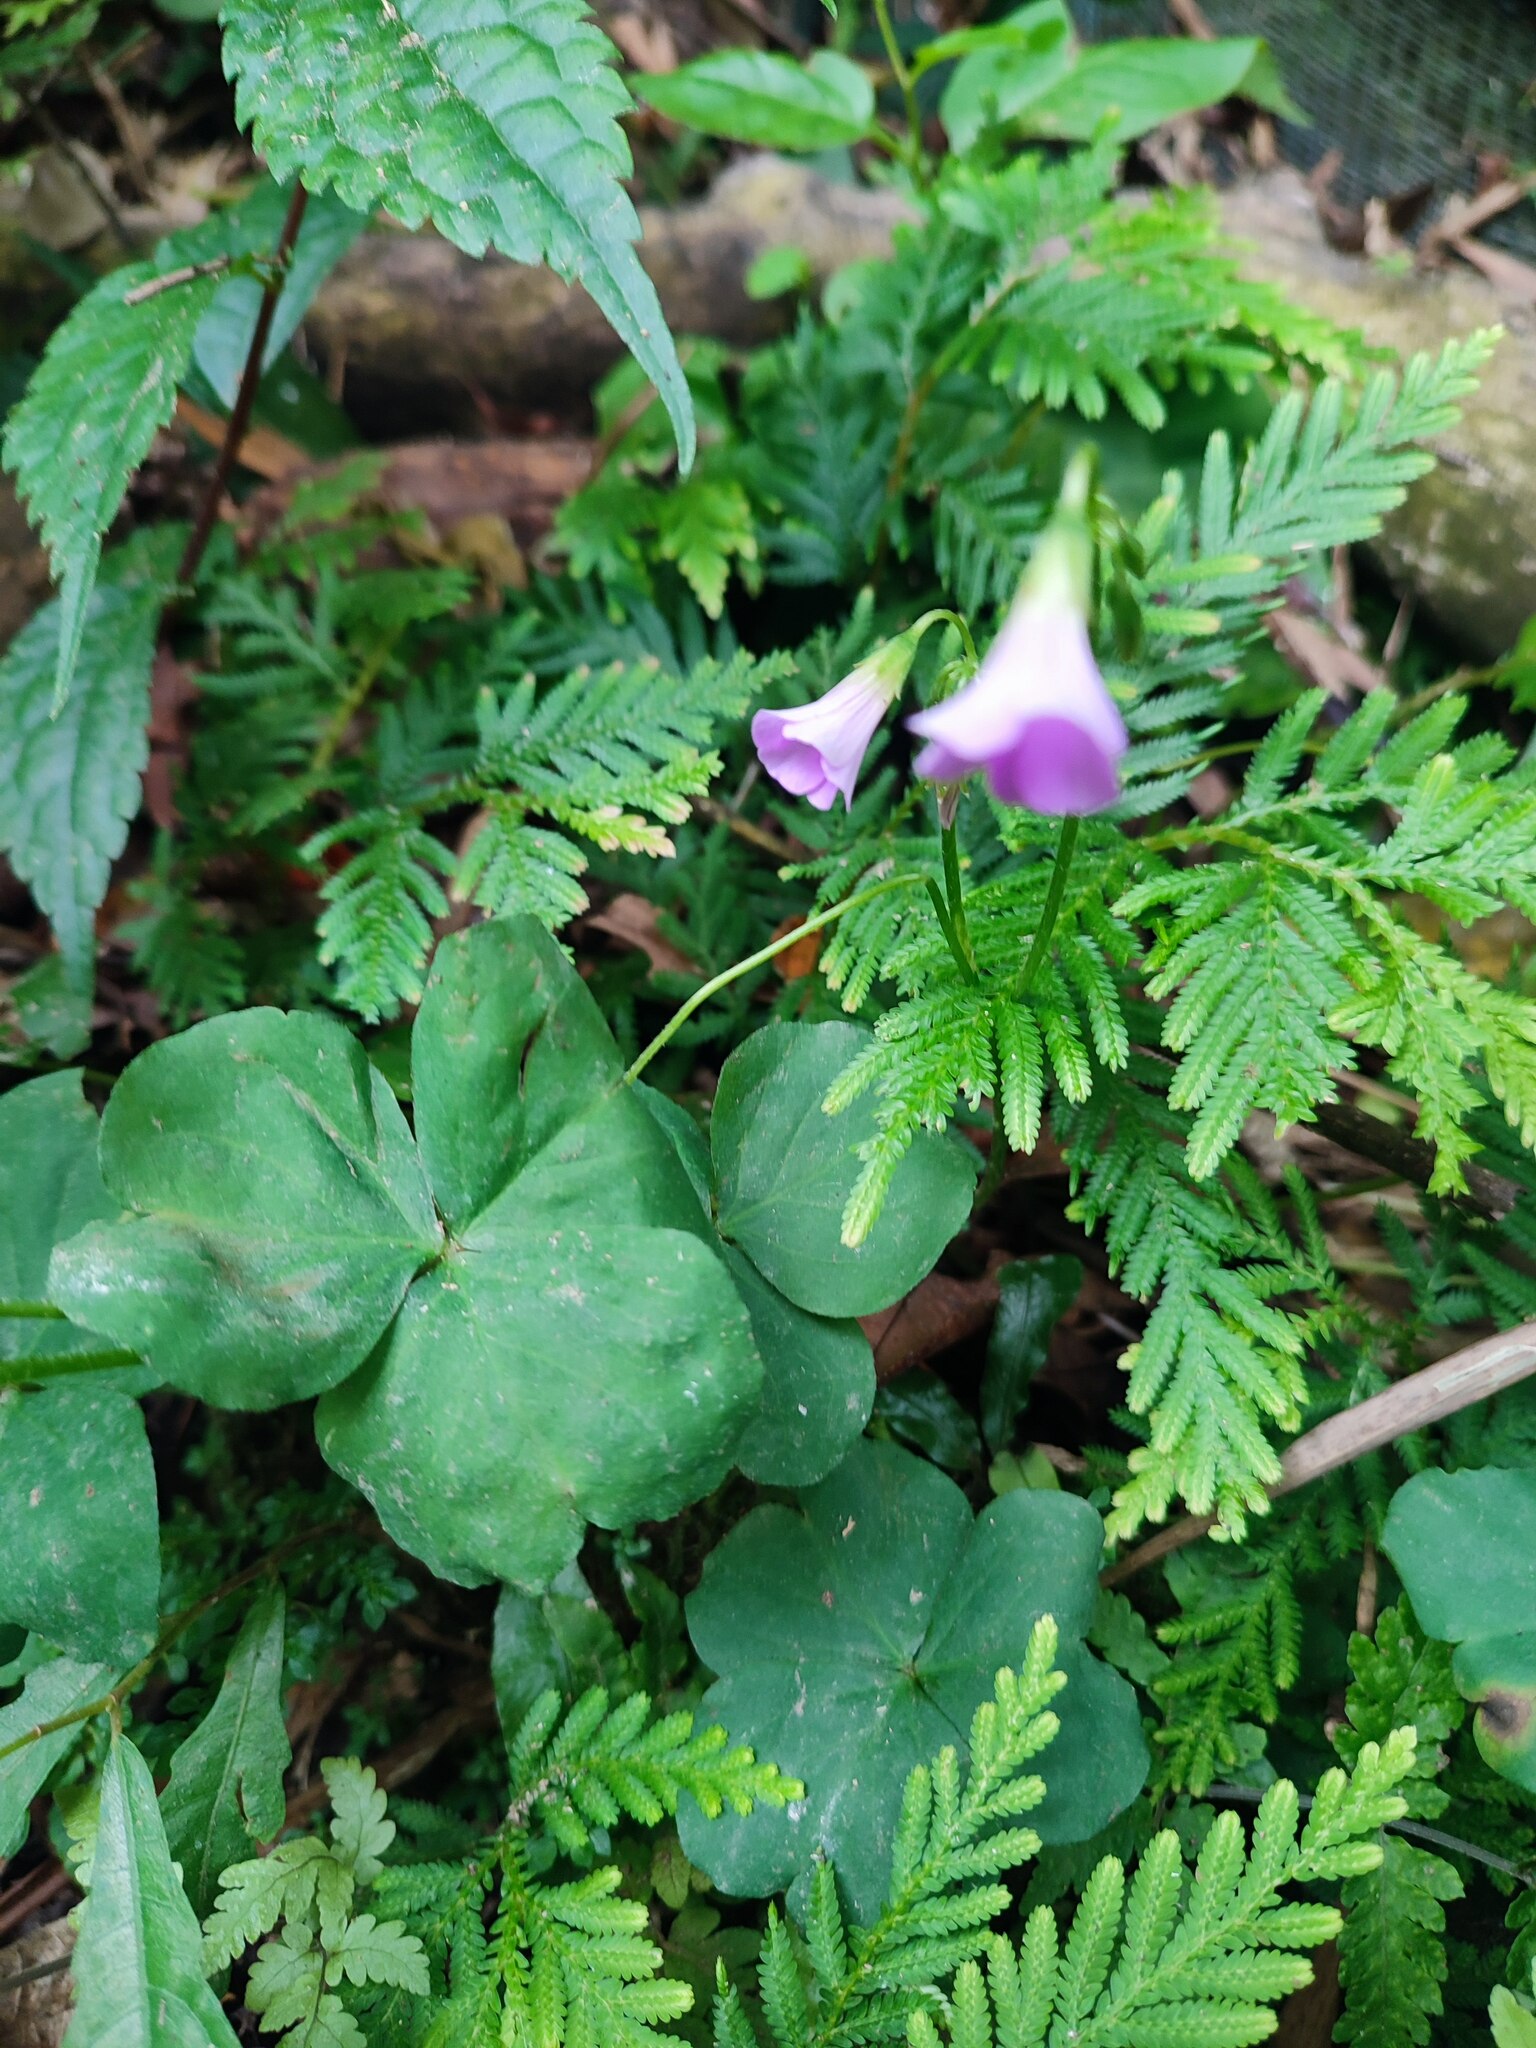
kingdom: Plantae
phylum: Tracheophyta
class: Magnoliopsida
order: Oxalidales
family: Oxalidaceae
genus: Oxalis
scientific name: Oxalis debilis
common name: Large-flowered pink-sorrel
